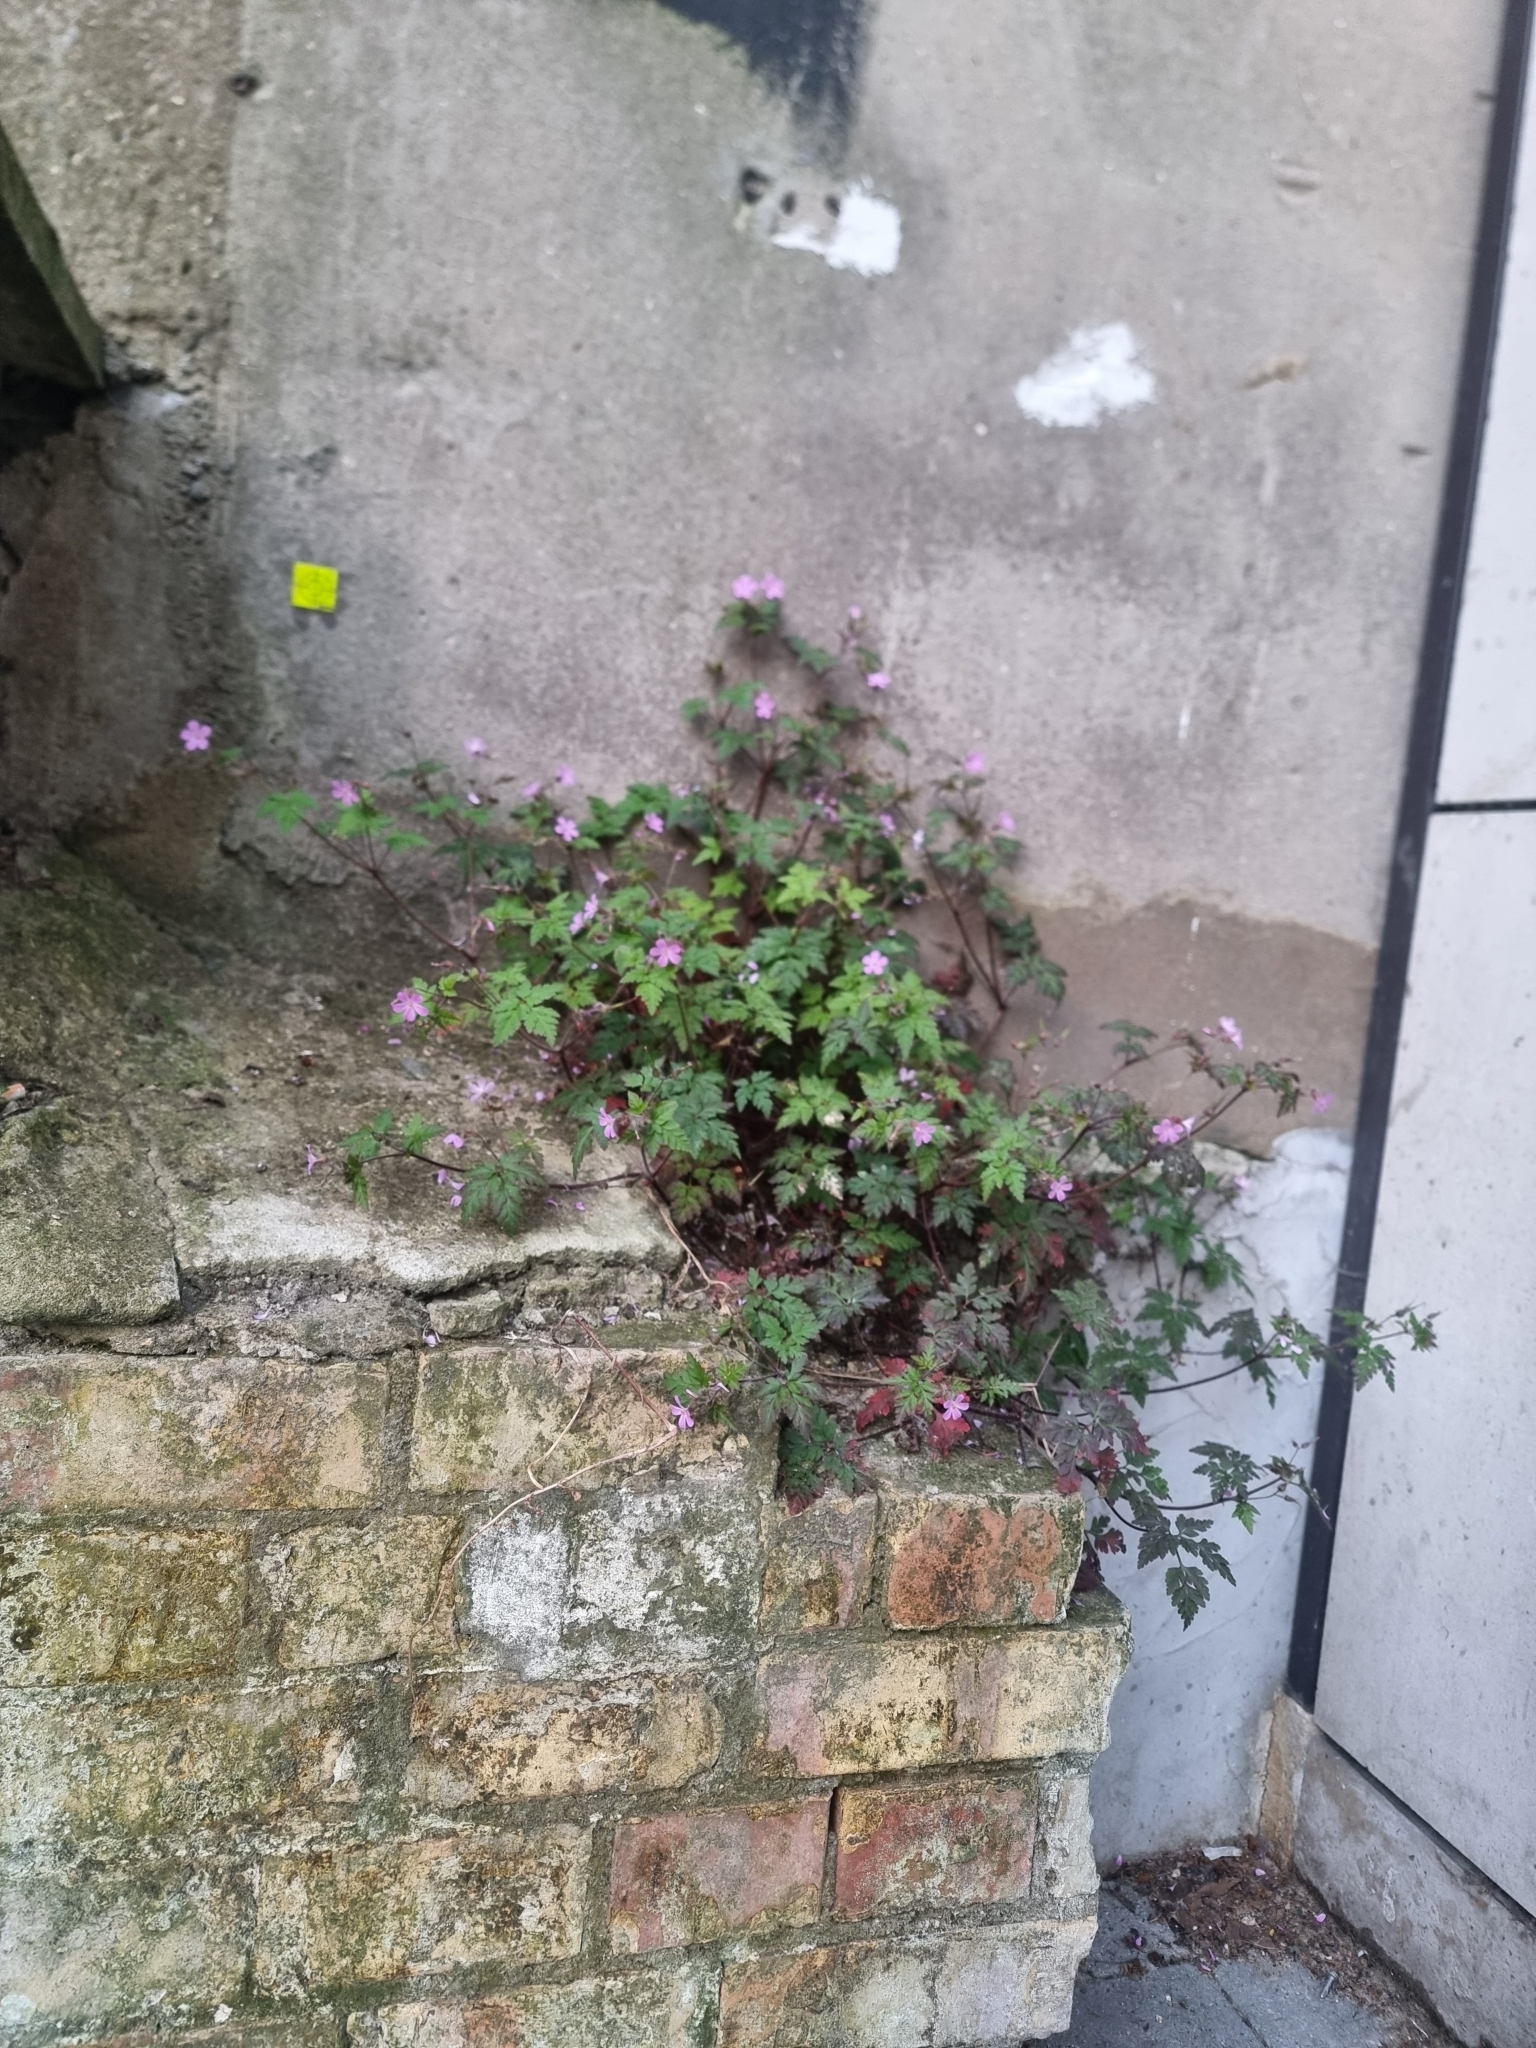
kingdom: Plantae
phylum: Tracheophyta
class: Magnoliopsida
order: Geraniales
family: Geraniaceae
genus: Geranium
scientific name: Geranium robertianum
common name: Herb-robert
